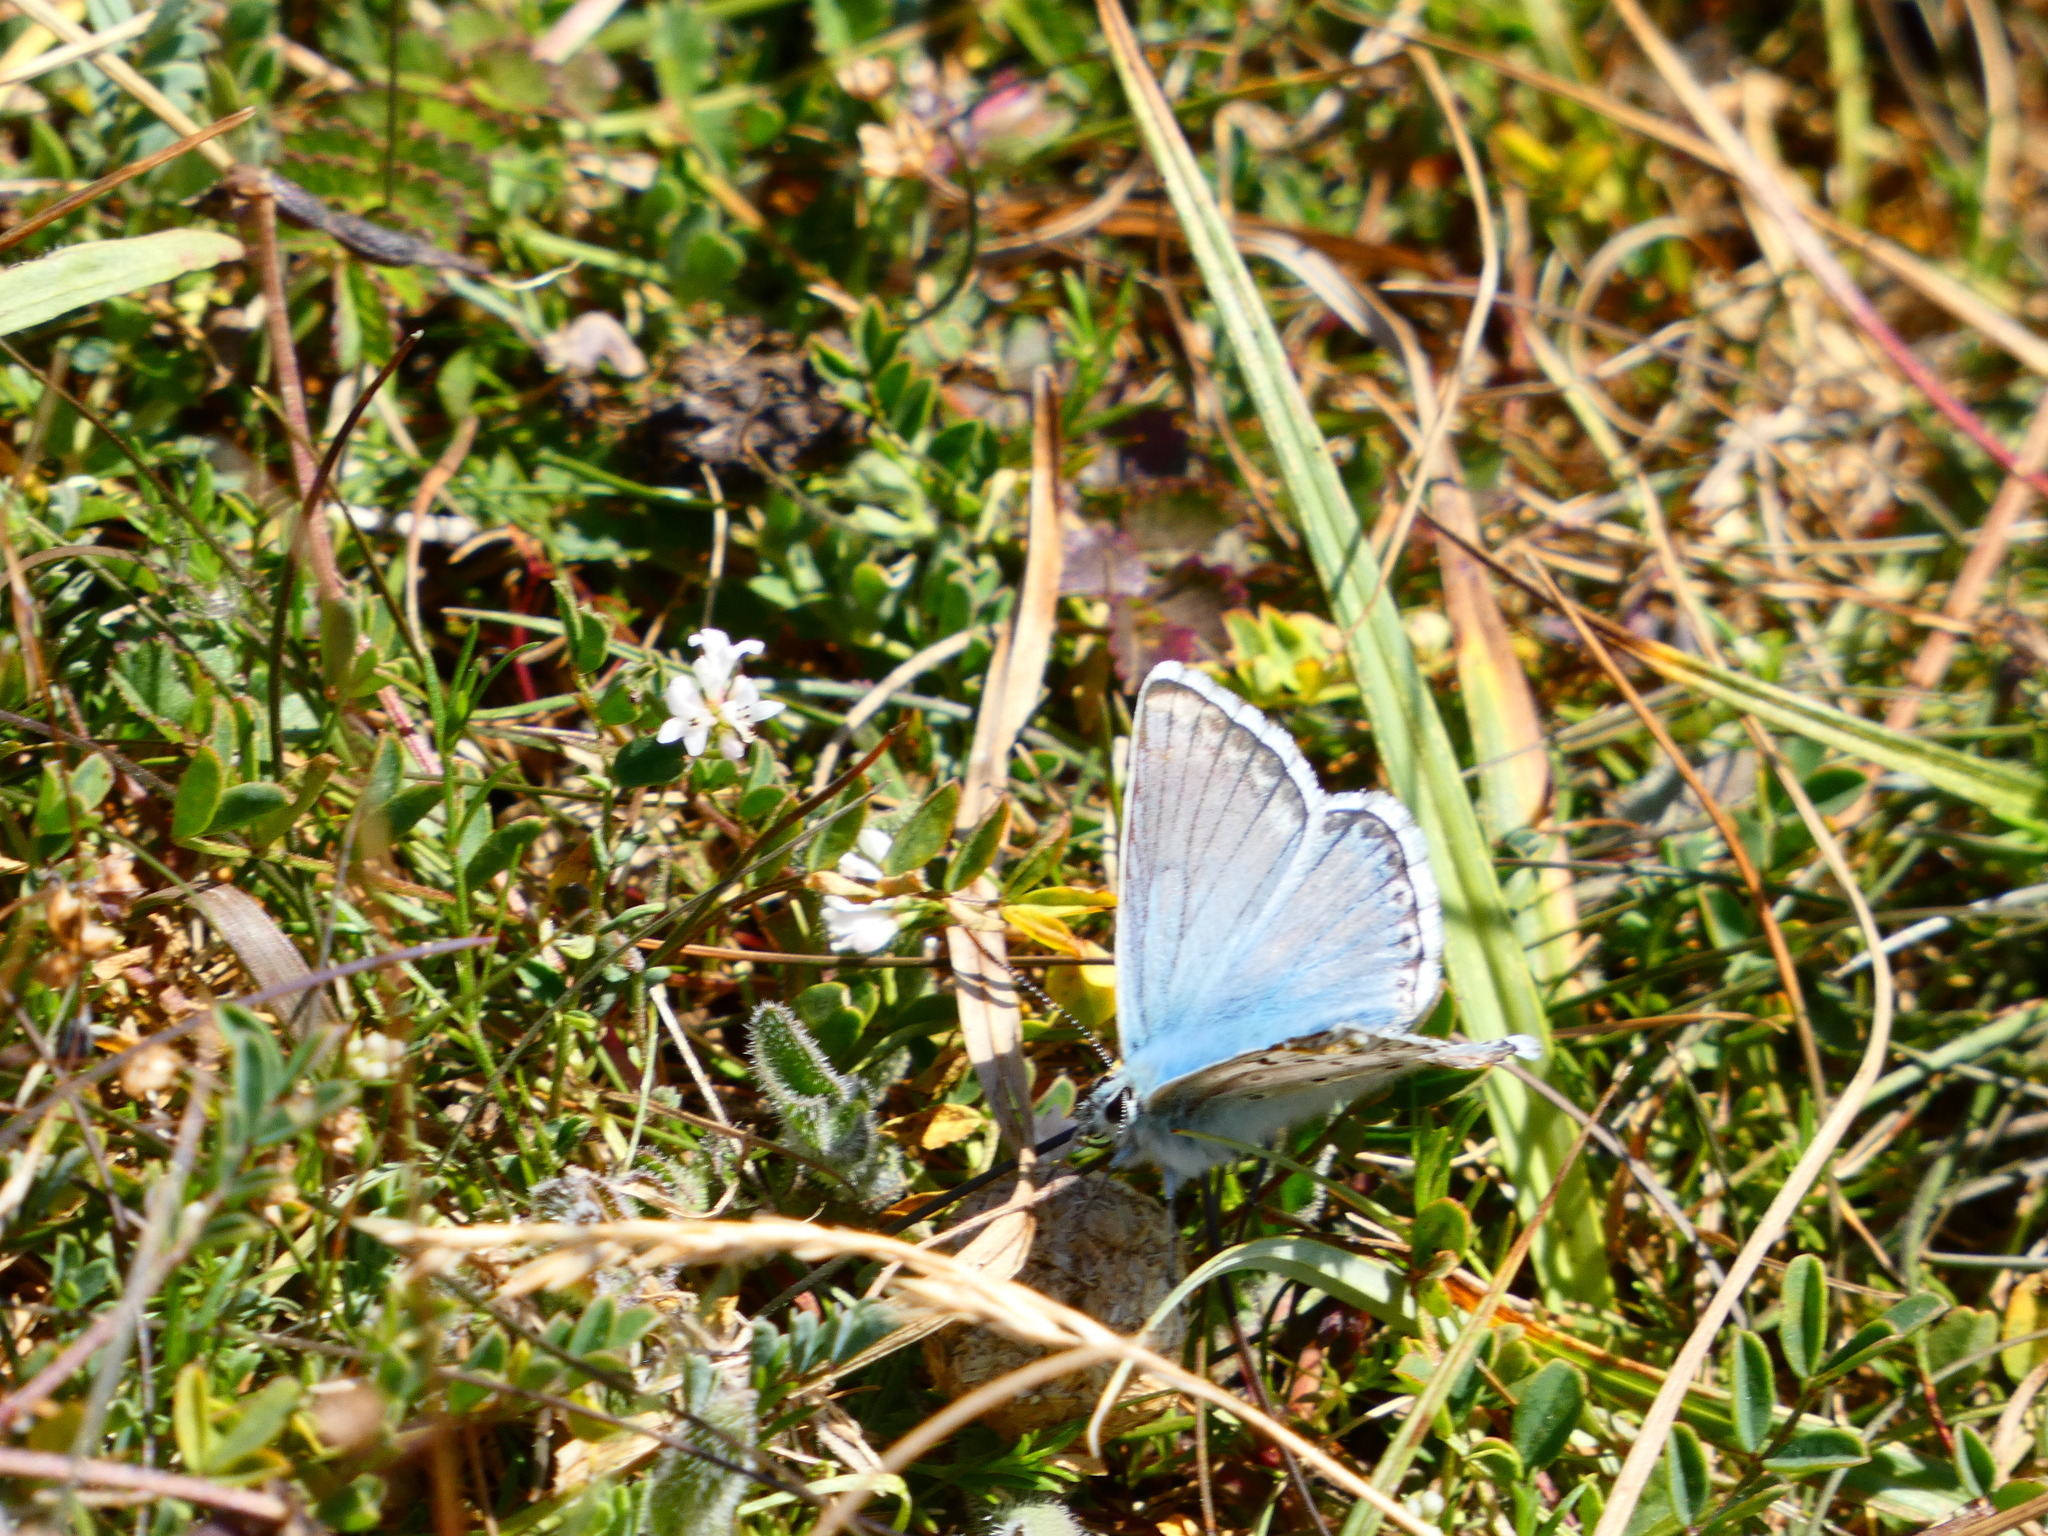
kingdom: Animalia
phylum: Arthropoda
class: Insecta
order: Lepidoptera
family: Lycaenidae
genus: Lysandra
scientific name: Lysandra coridon
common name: Chalkhill blue
